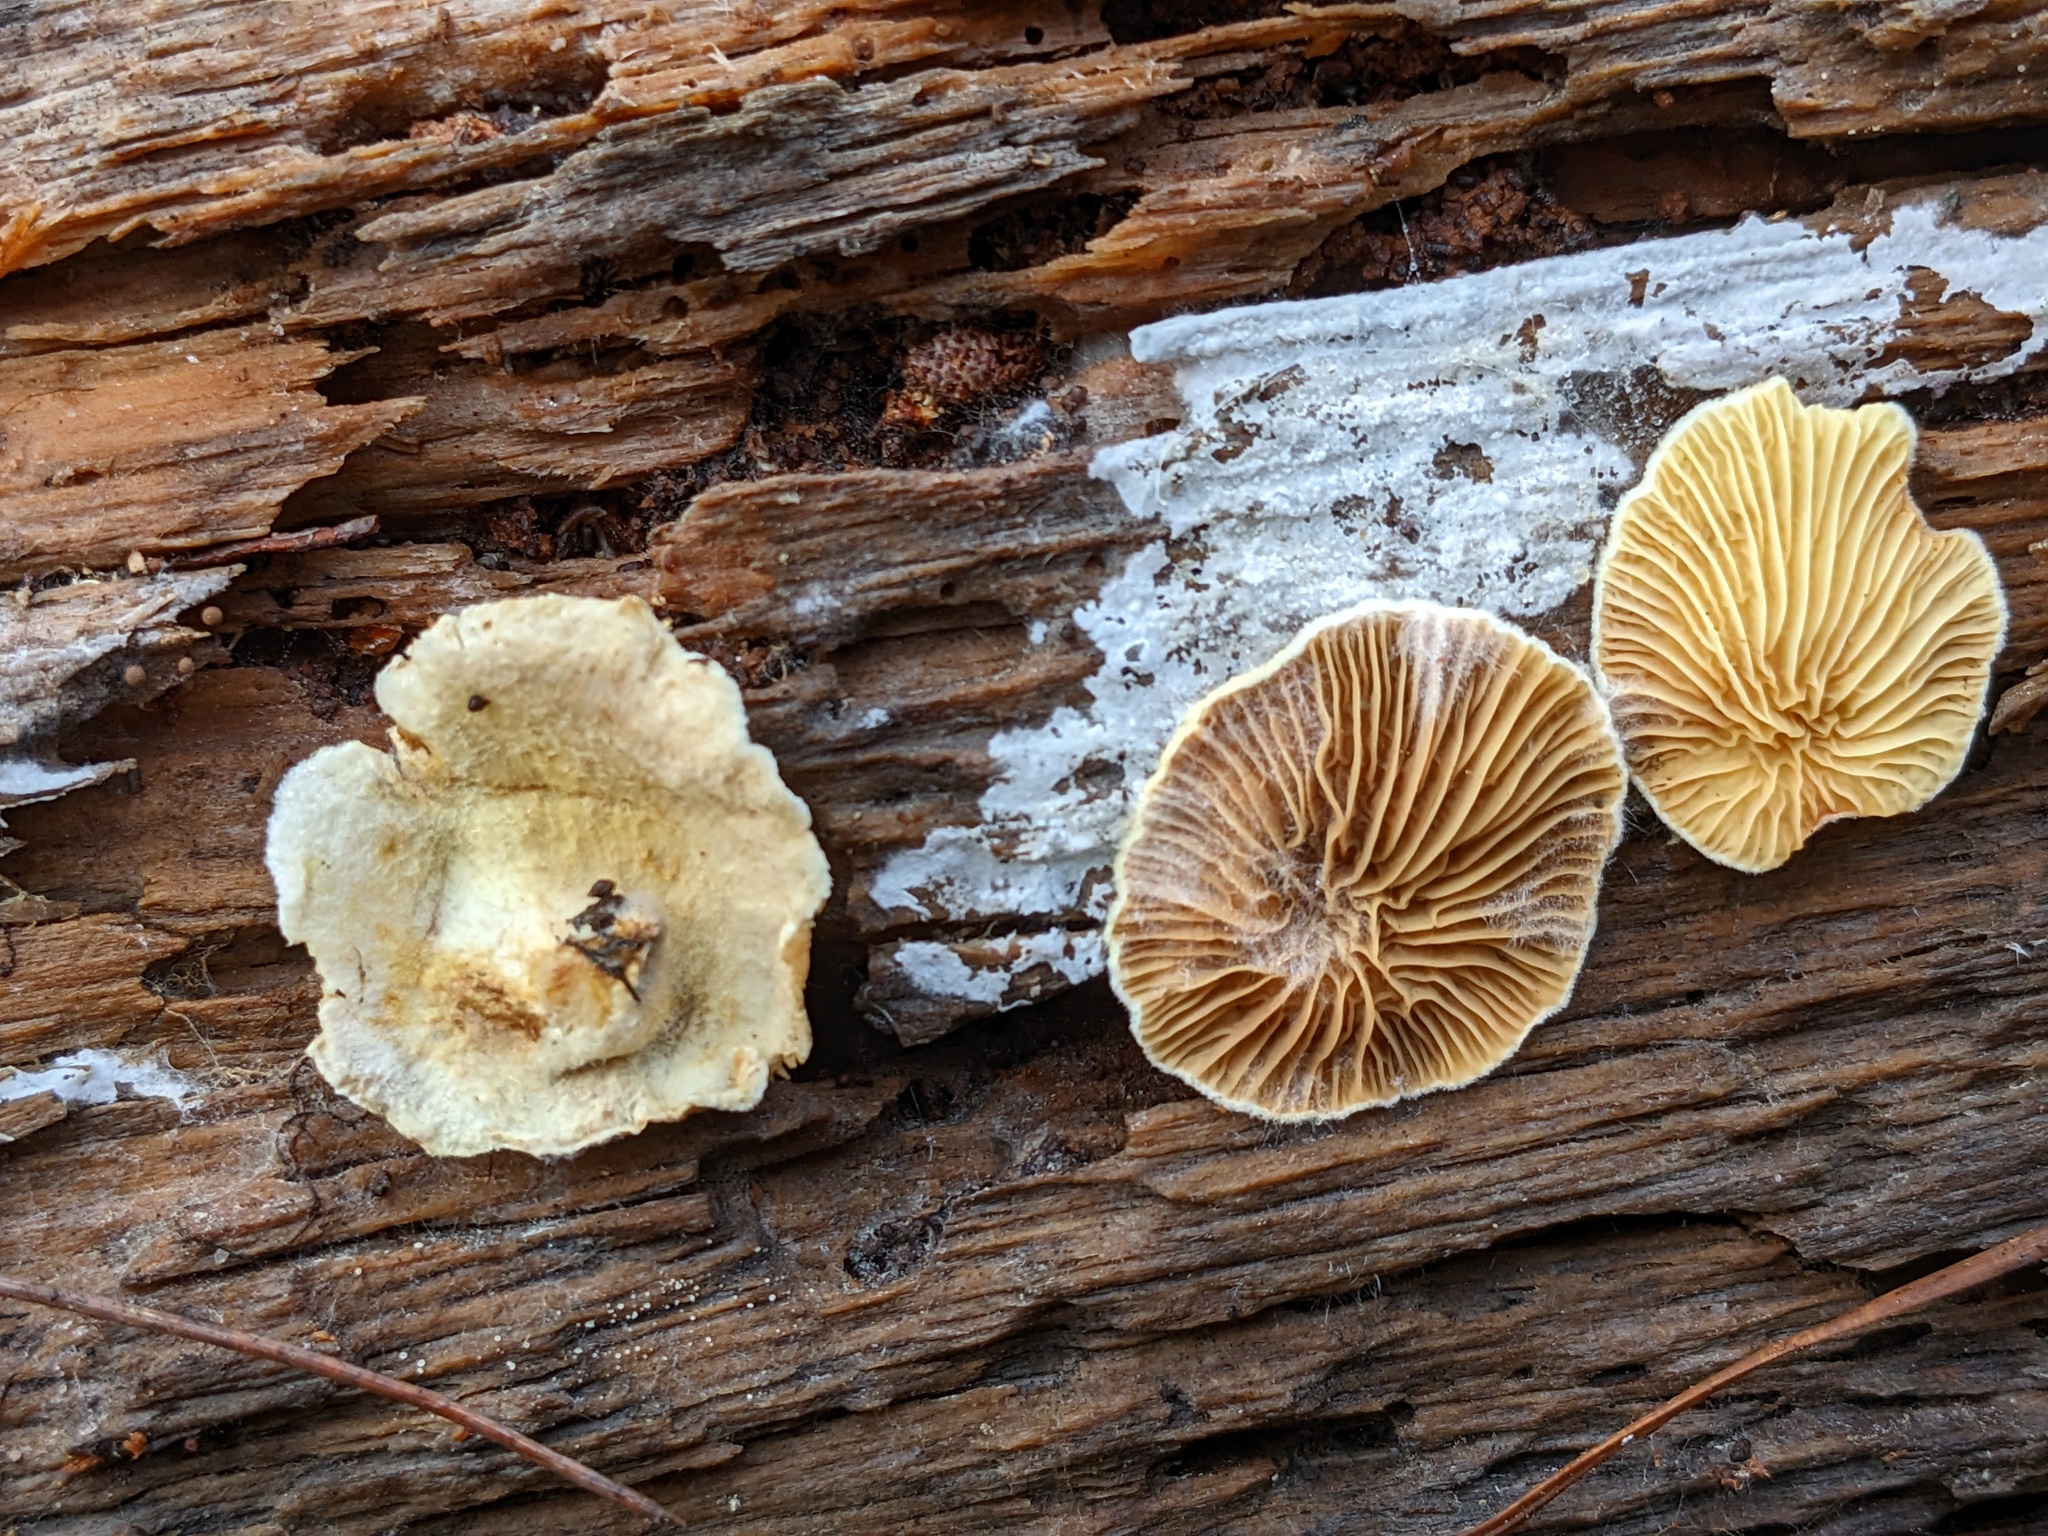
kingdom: Fungi
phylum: Basidiomycota
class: Agaricomycetes
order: Boletales
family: Tapinellaceae
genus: Tapinella
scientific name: Tapinella panuoides
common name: Oyster rollrim
